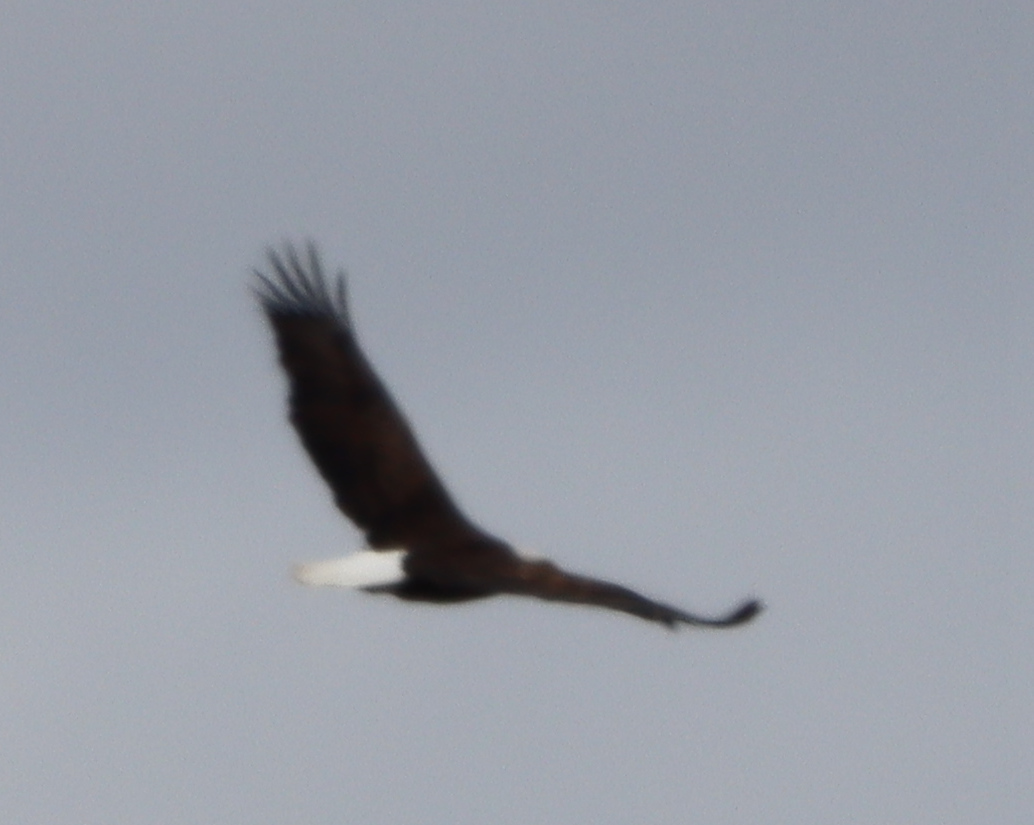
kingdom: Animalia
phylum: Chordata
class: Aves
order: Accipitriformes
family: Accipitridae
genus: Haliaeetus
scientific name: Haliaeetus leucocephalus
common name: Bald eagle
